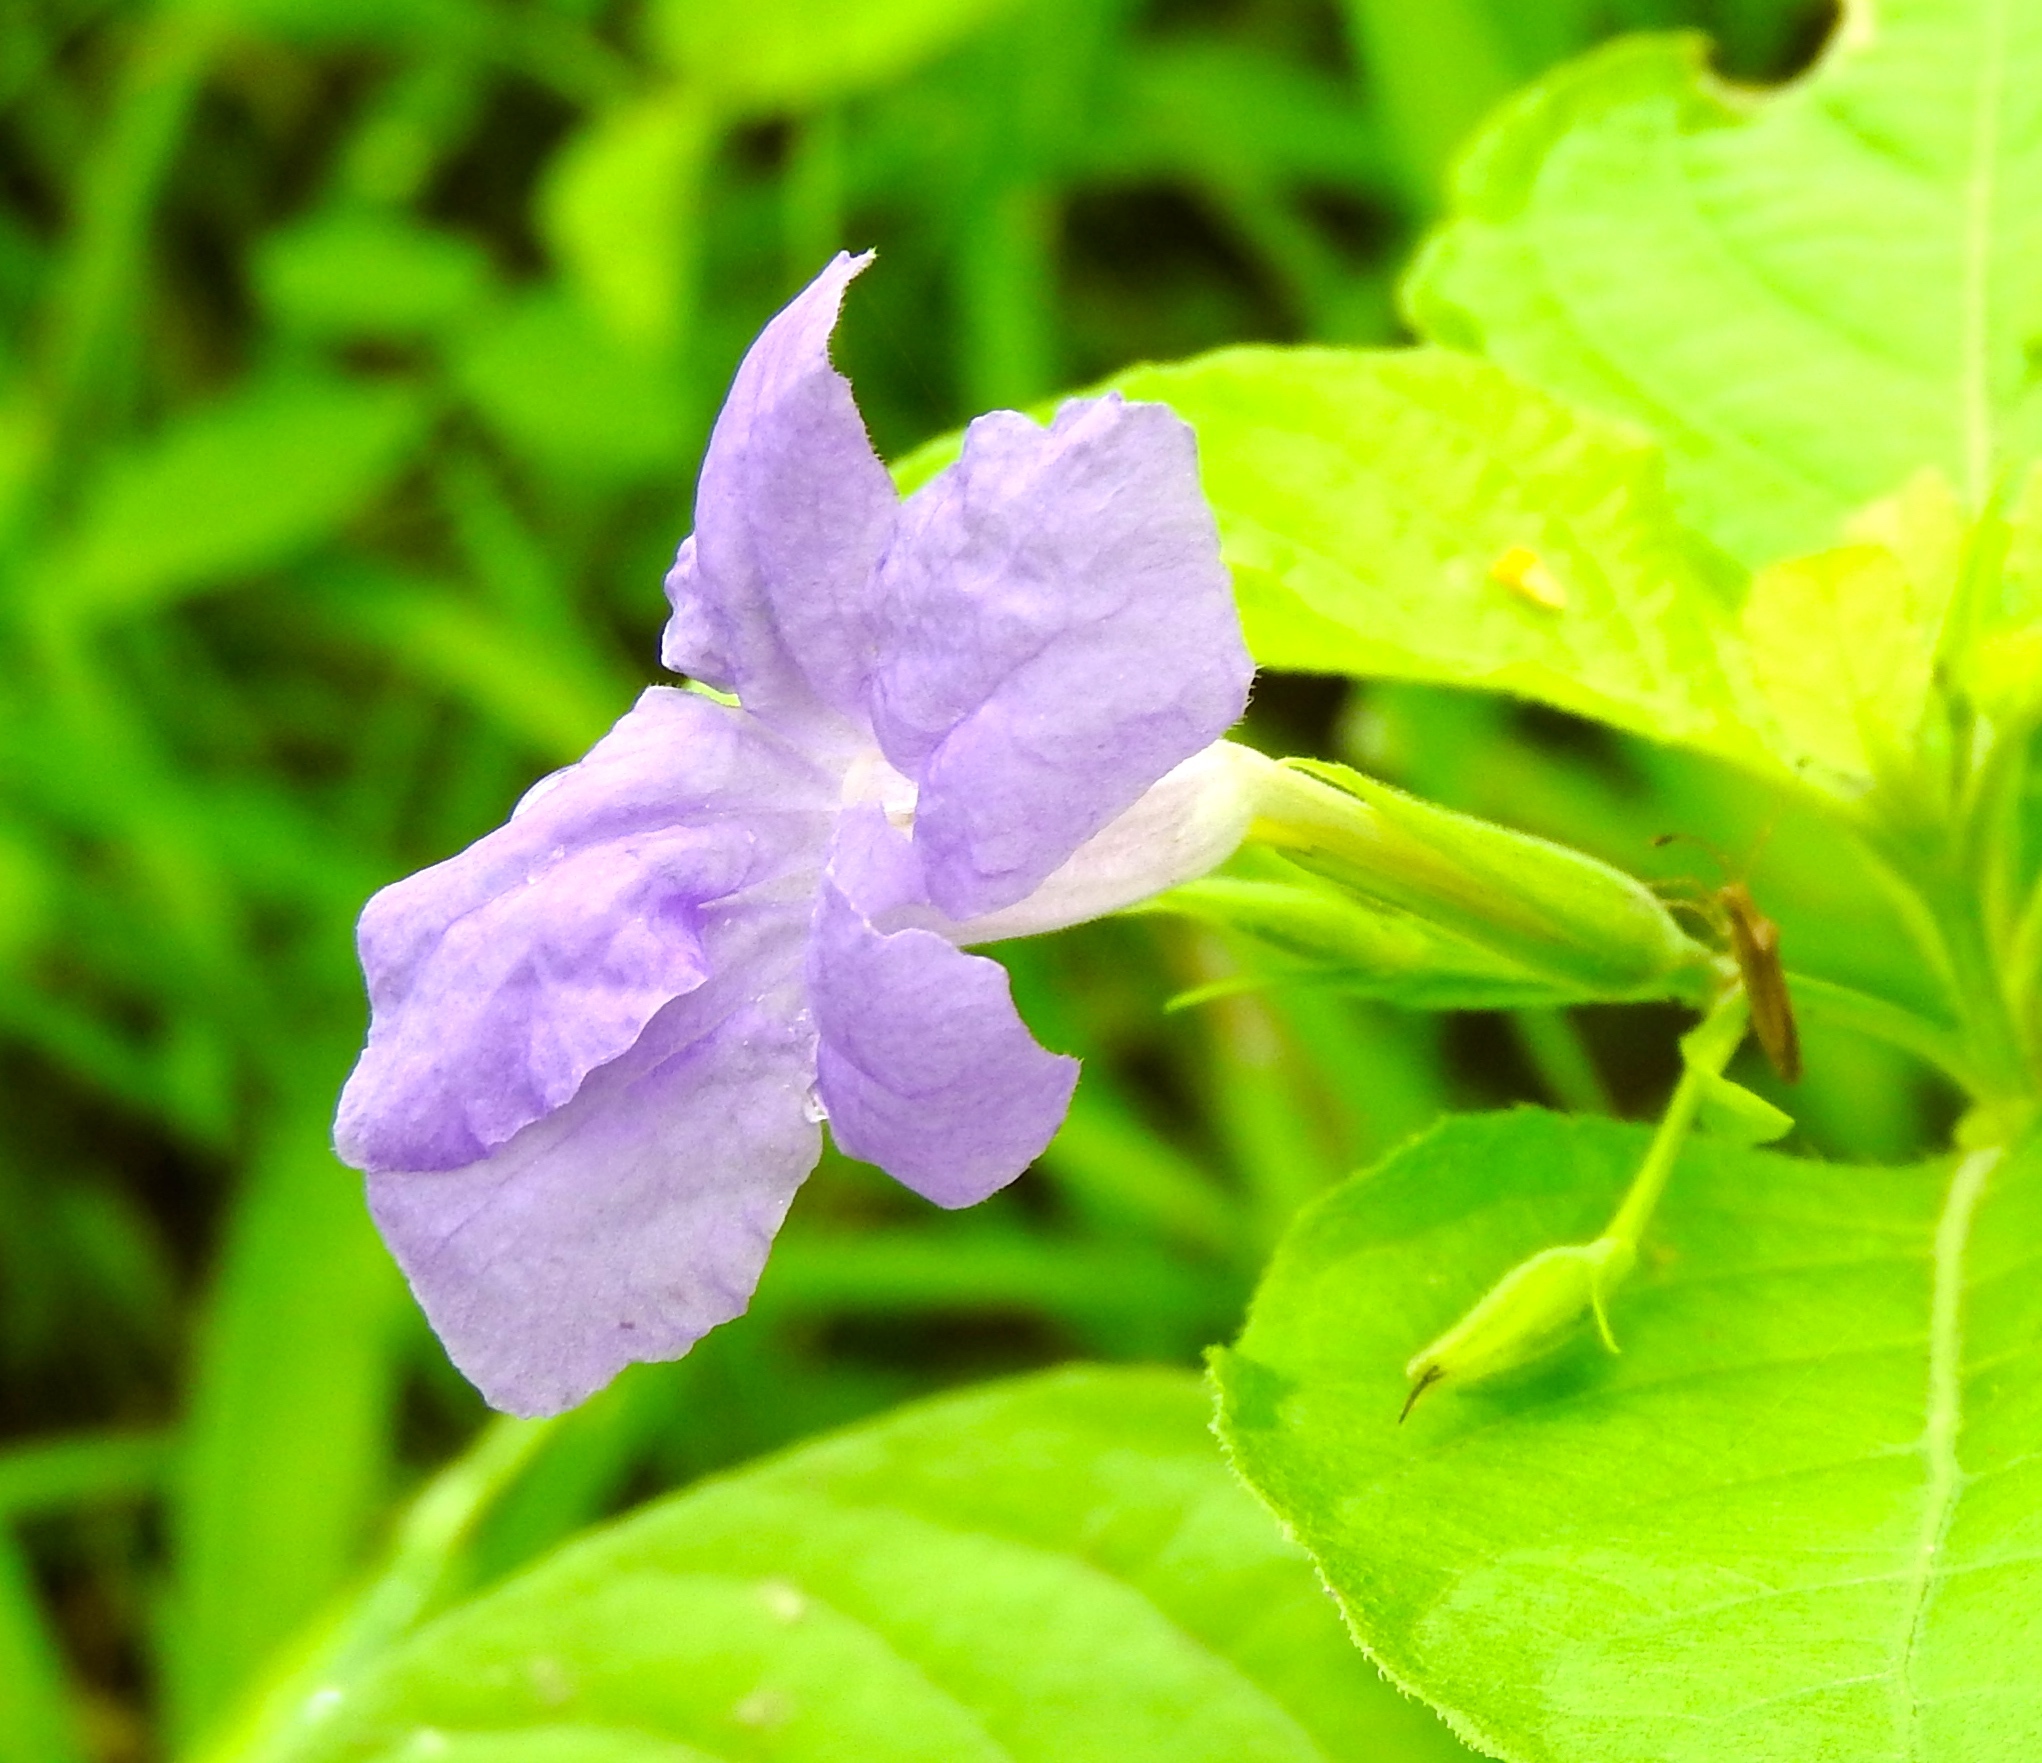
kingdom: Plantae
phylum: Tracheophyta
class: Magnoliopsida
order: Lamiales
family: Acanthaceae
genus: Ruellia
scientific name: Ruellia intermedia
